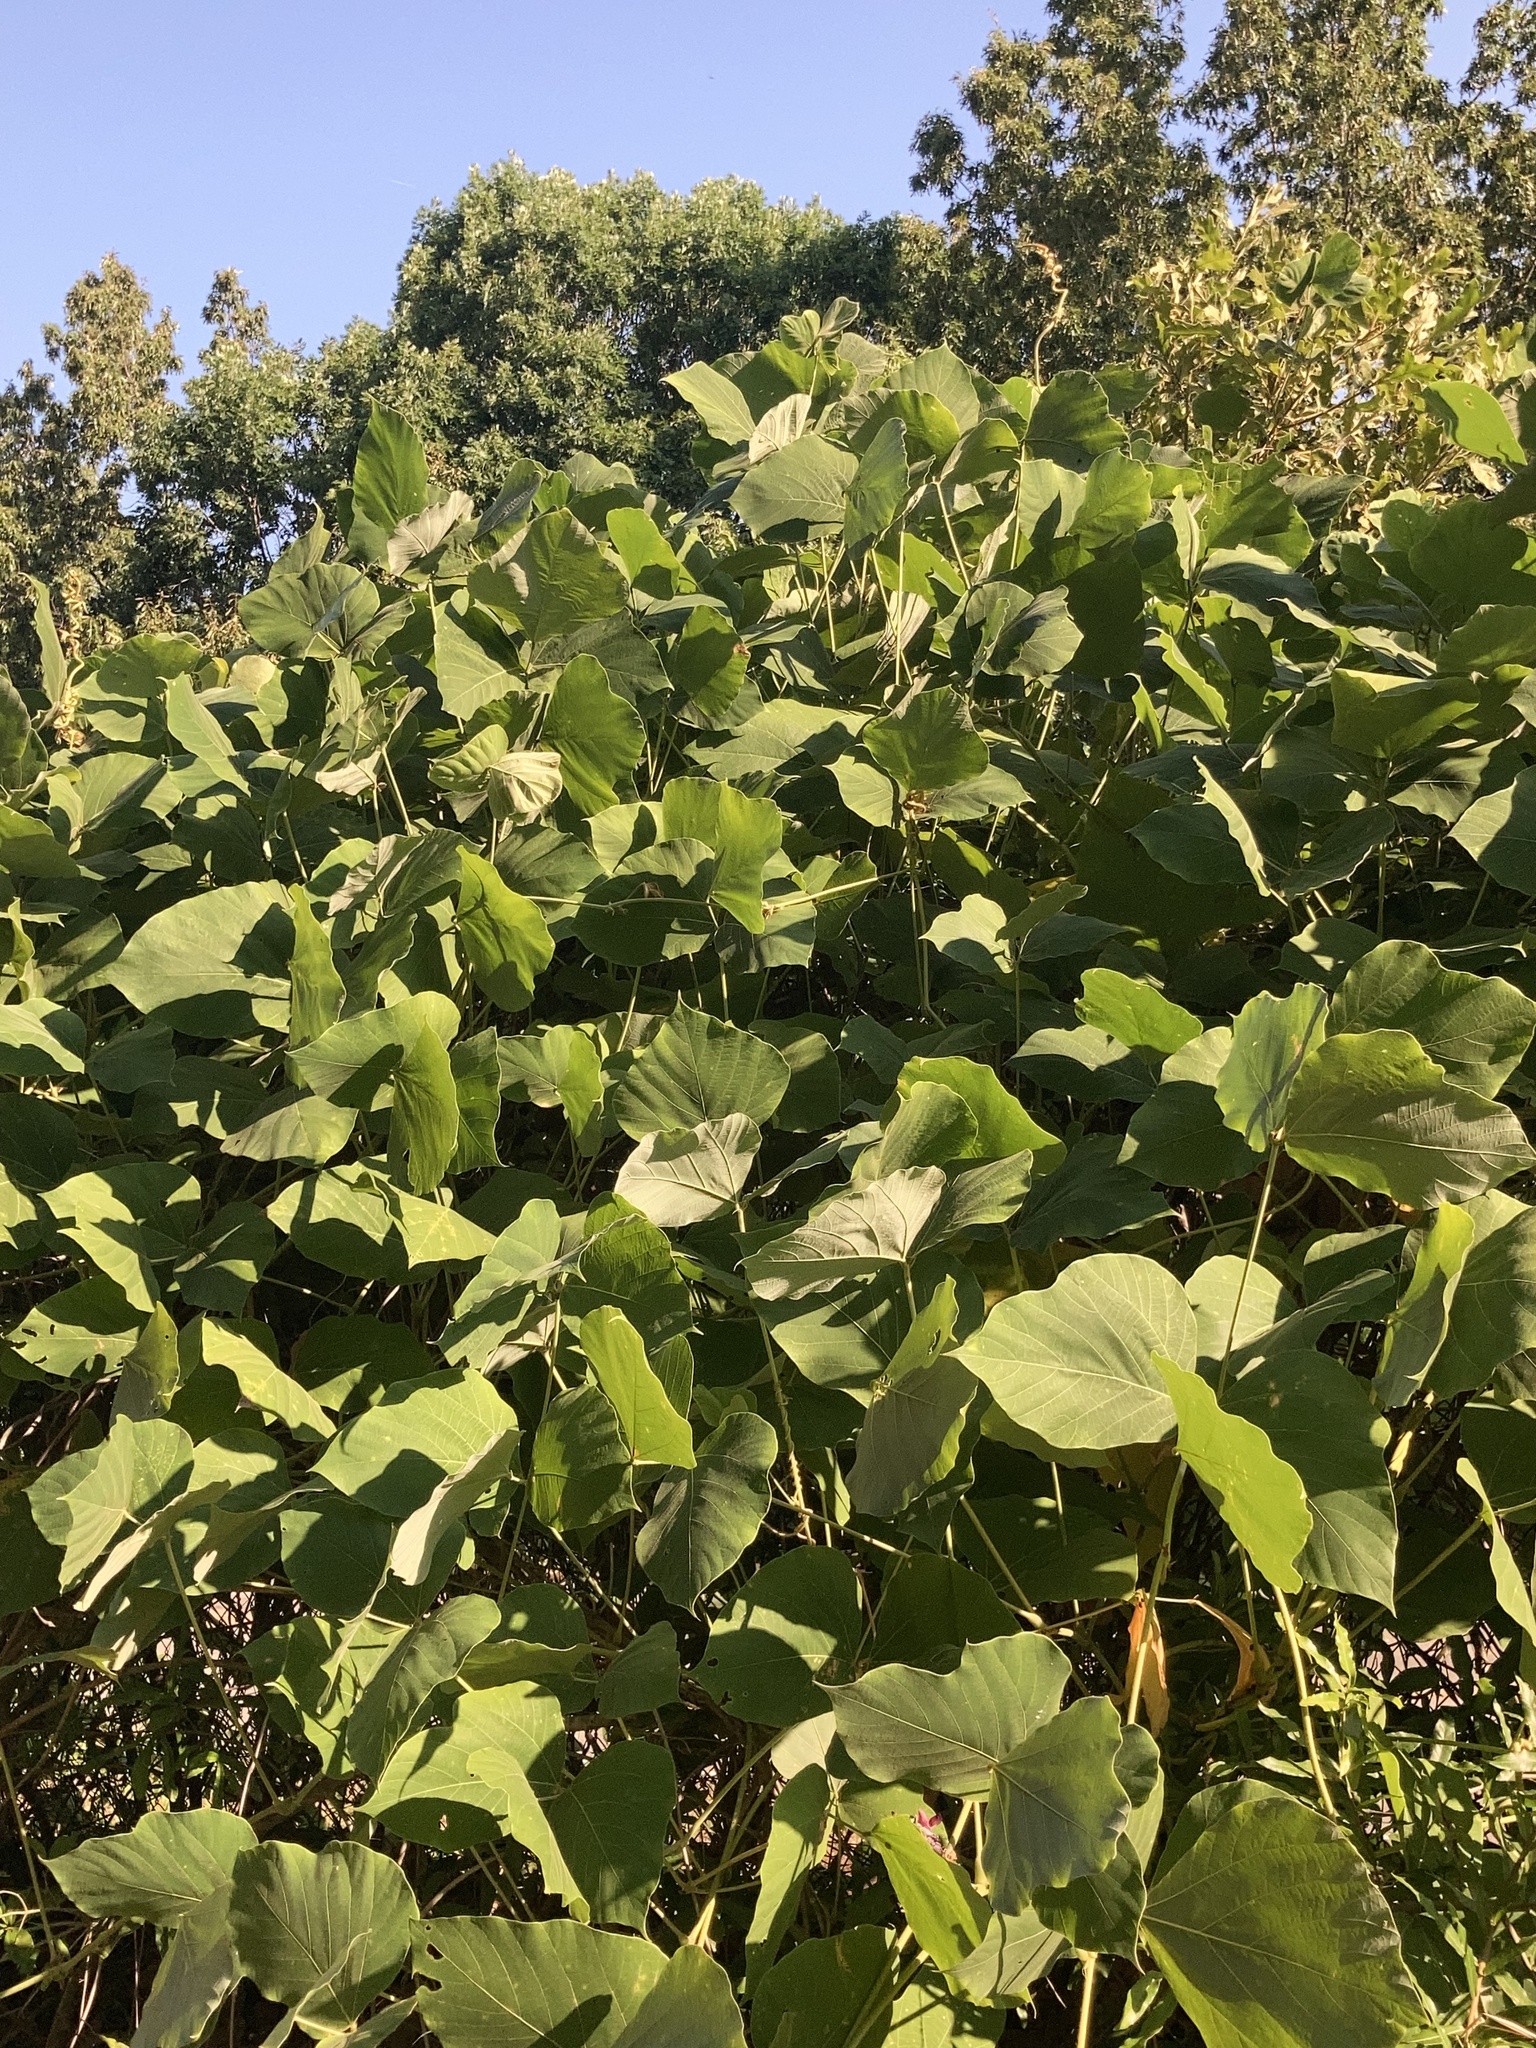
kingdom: Plantae
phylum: Tracheophyta
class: Magnoliopsida
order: Fabales
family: Fabaceae
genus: Pueraria
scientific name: Pueraria montana
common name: Kudzu
